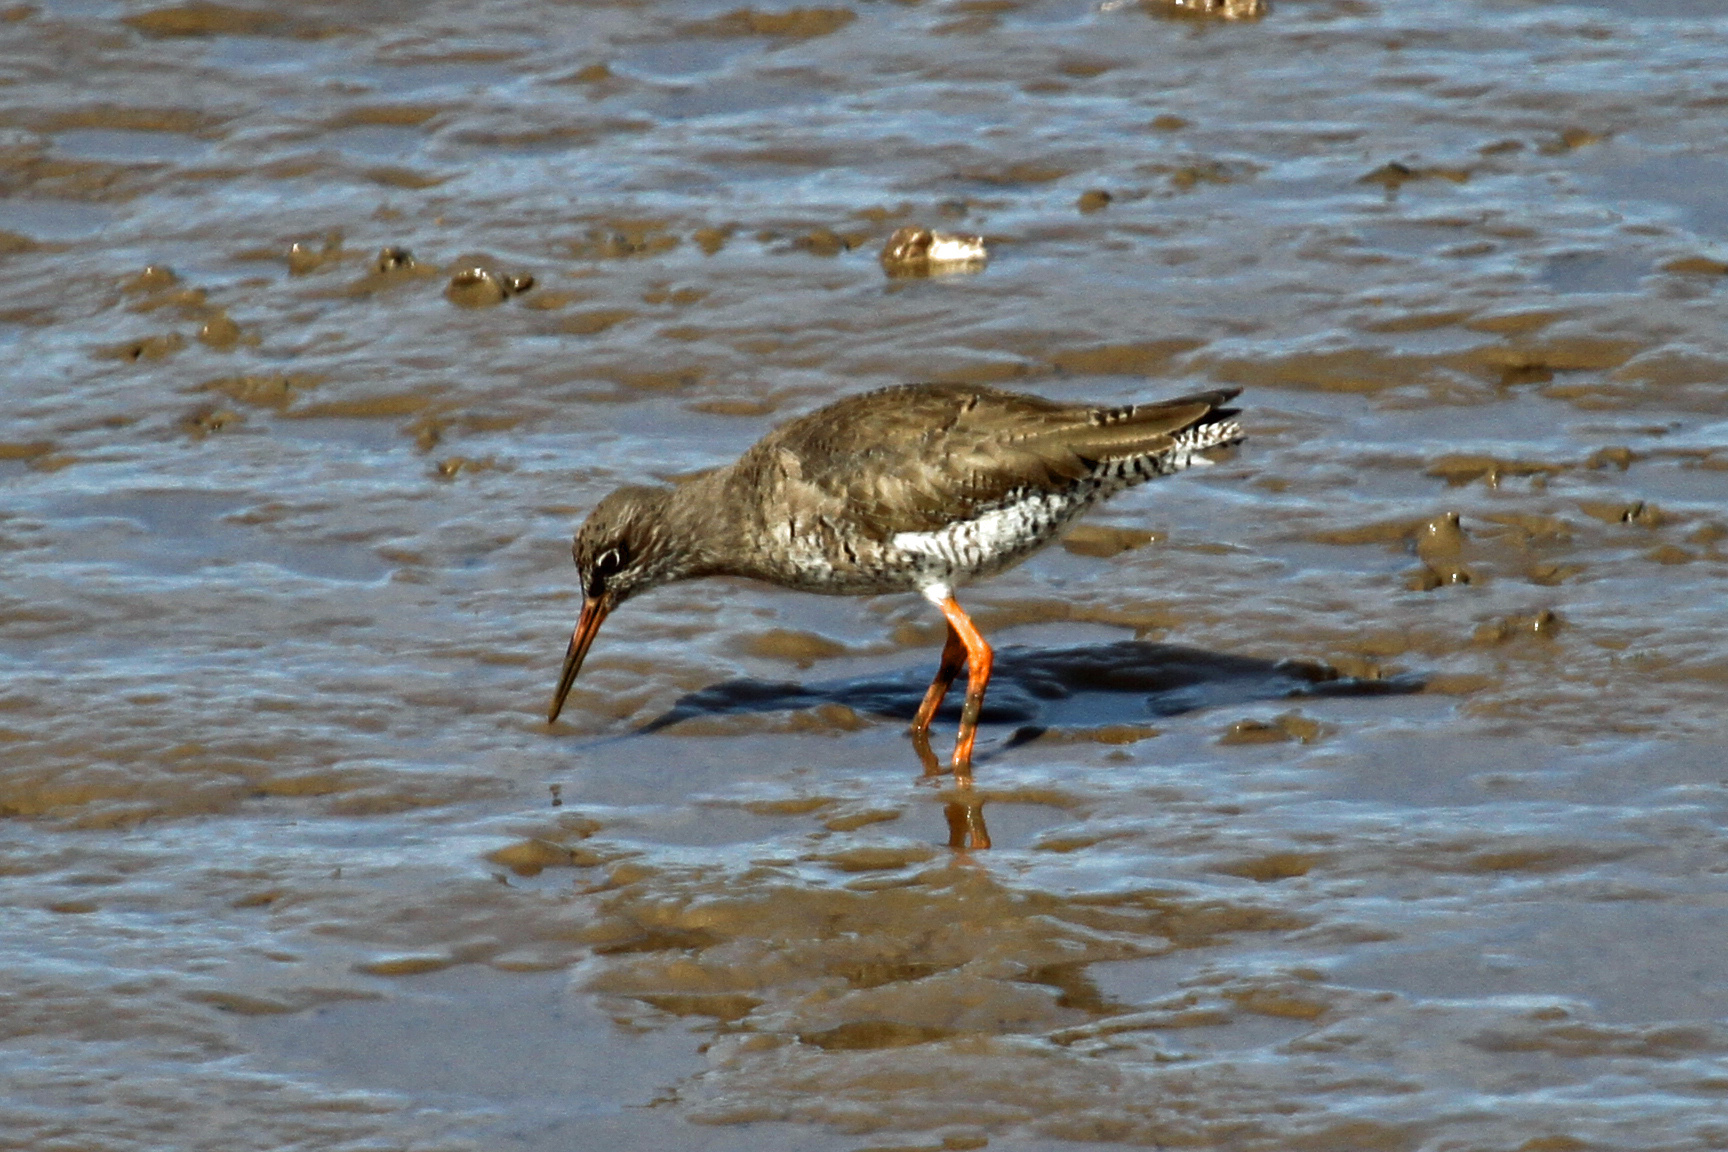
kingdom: Animalia
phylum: Chordata
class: Aves
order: Charadriiformes
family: Scolopacidae
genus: Tringa
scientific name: Tringa totanus
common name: Common redshank
